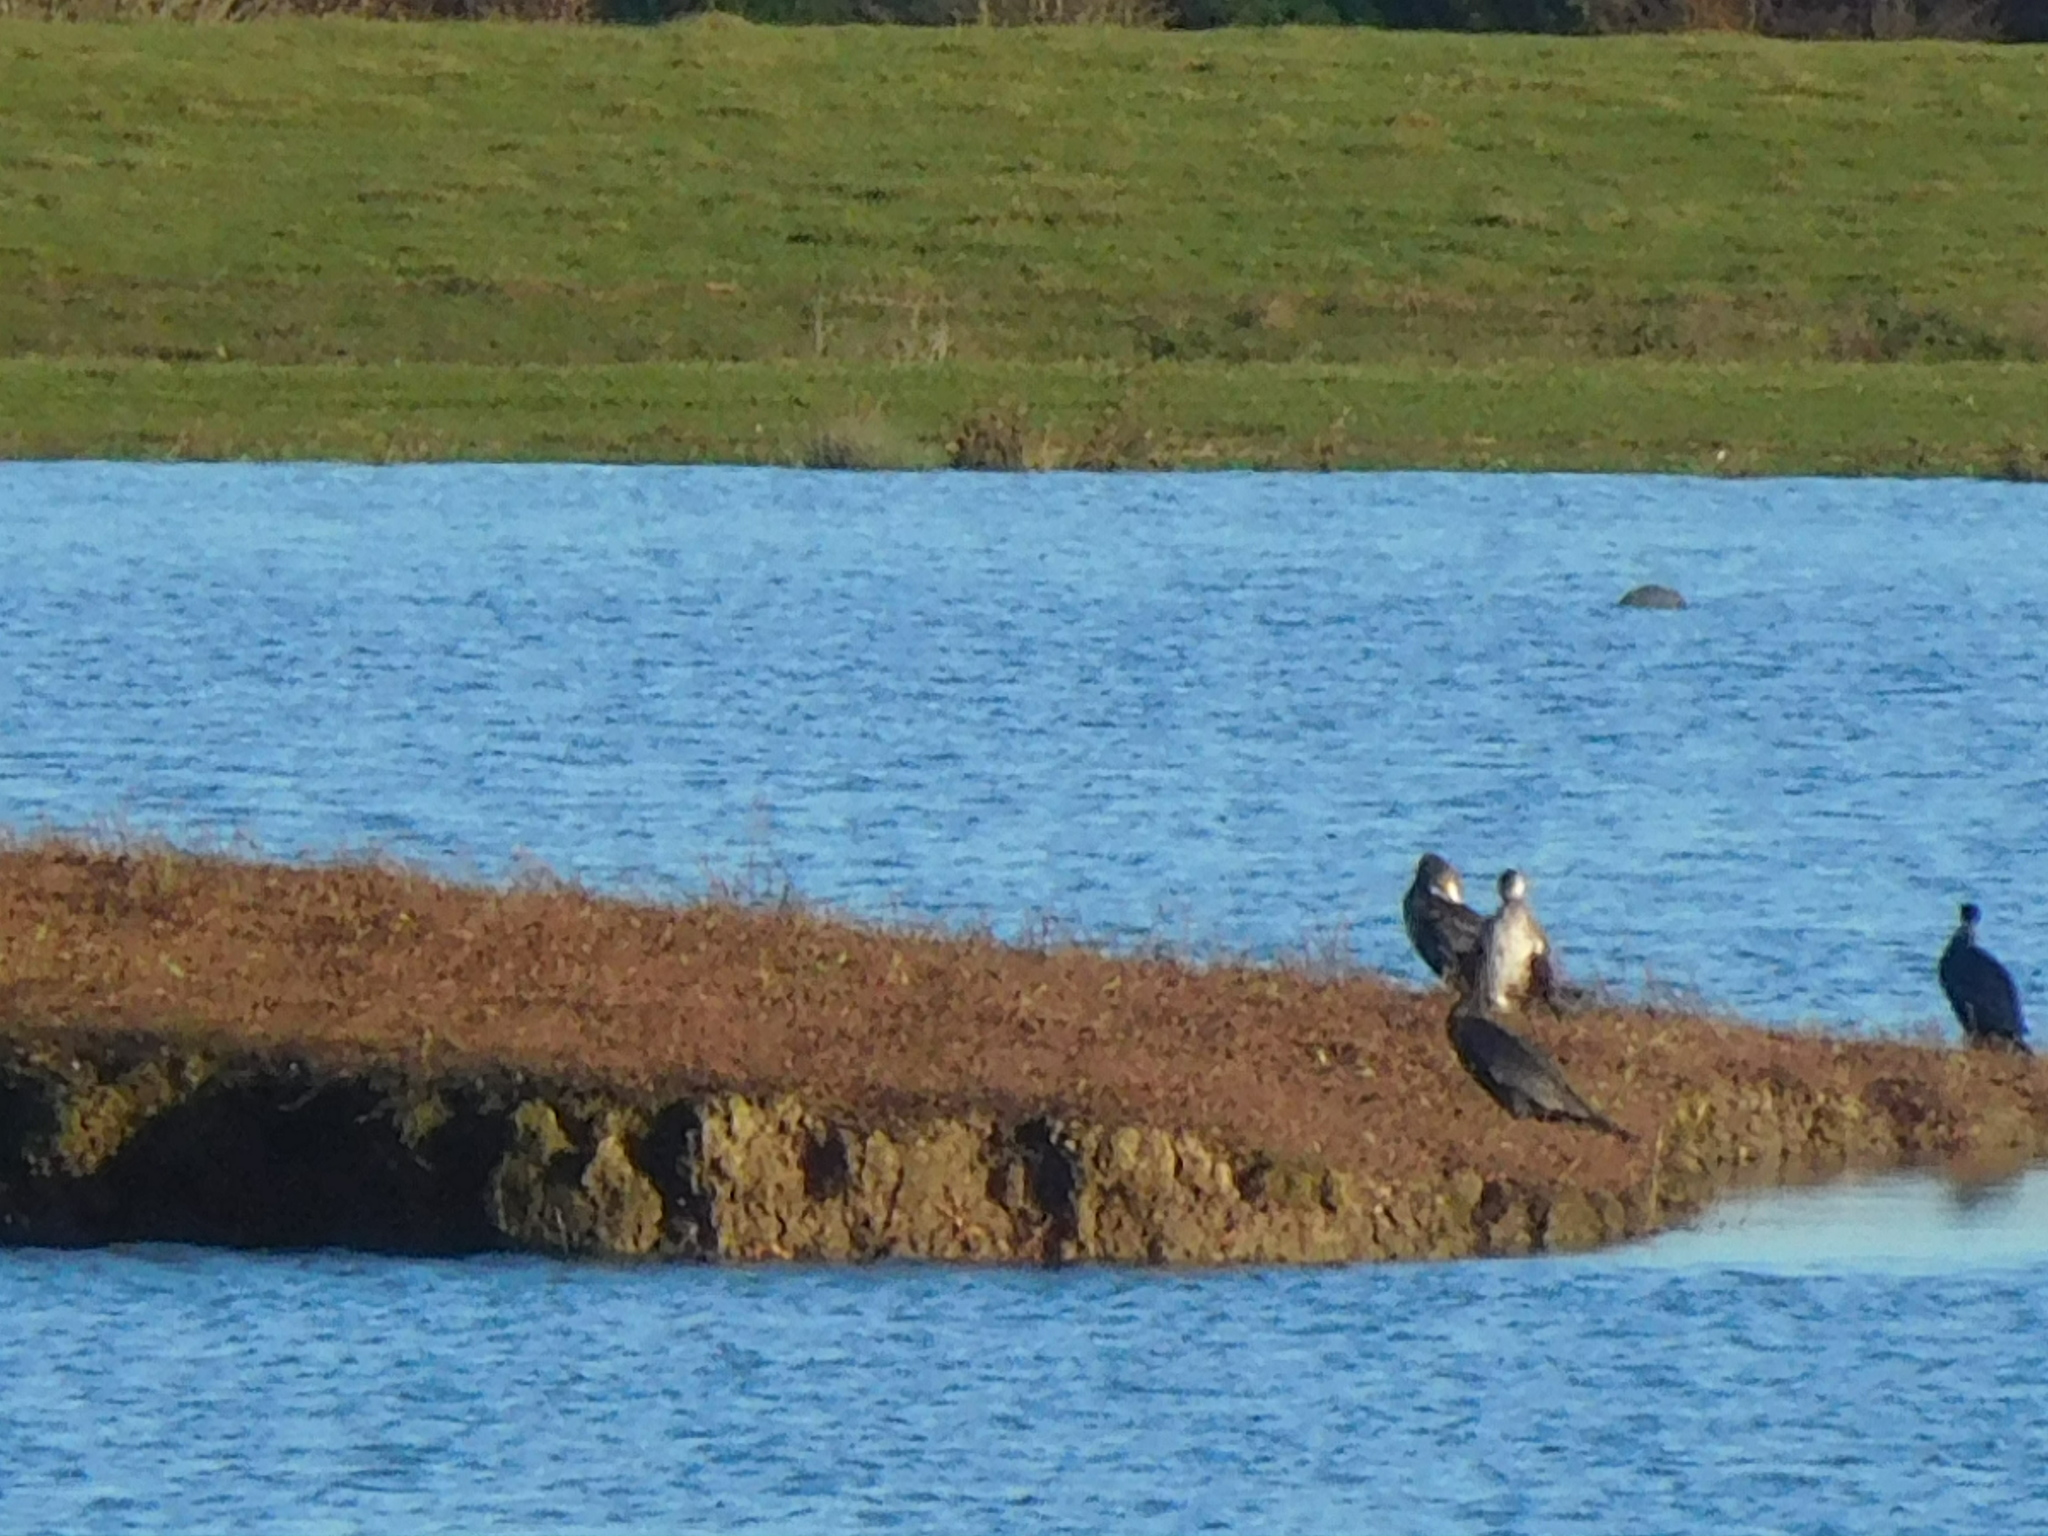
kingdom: Animalia
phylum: Chordata
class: Aves
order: Suliformes
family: Phalacrocoracidae
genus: Phalacrocorax
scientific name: Phalacrocorax carbo
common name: Great cormorant
